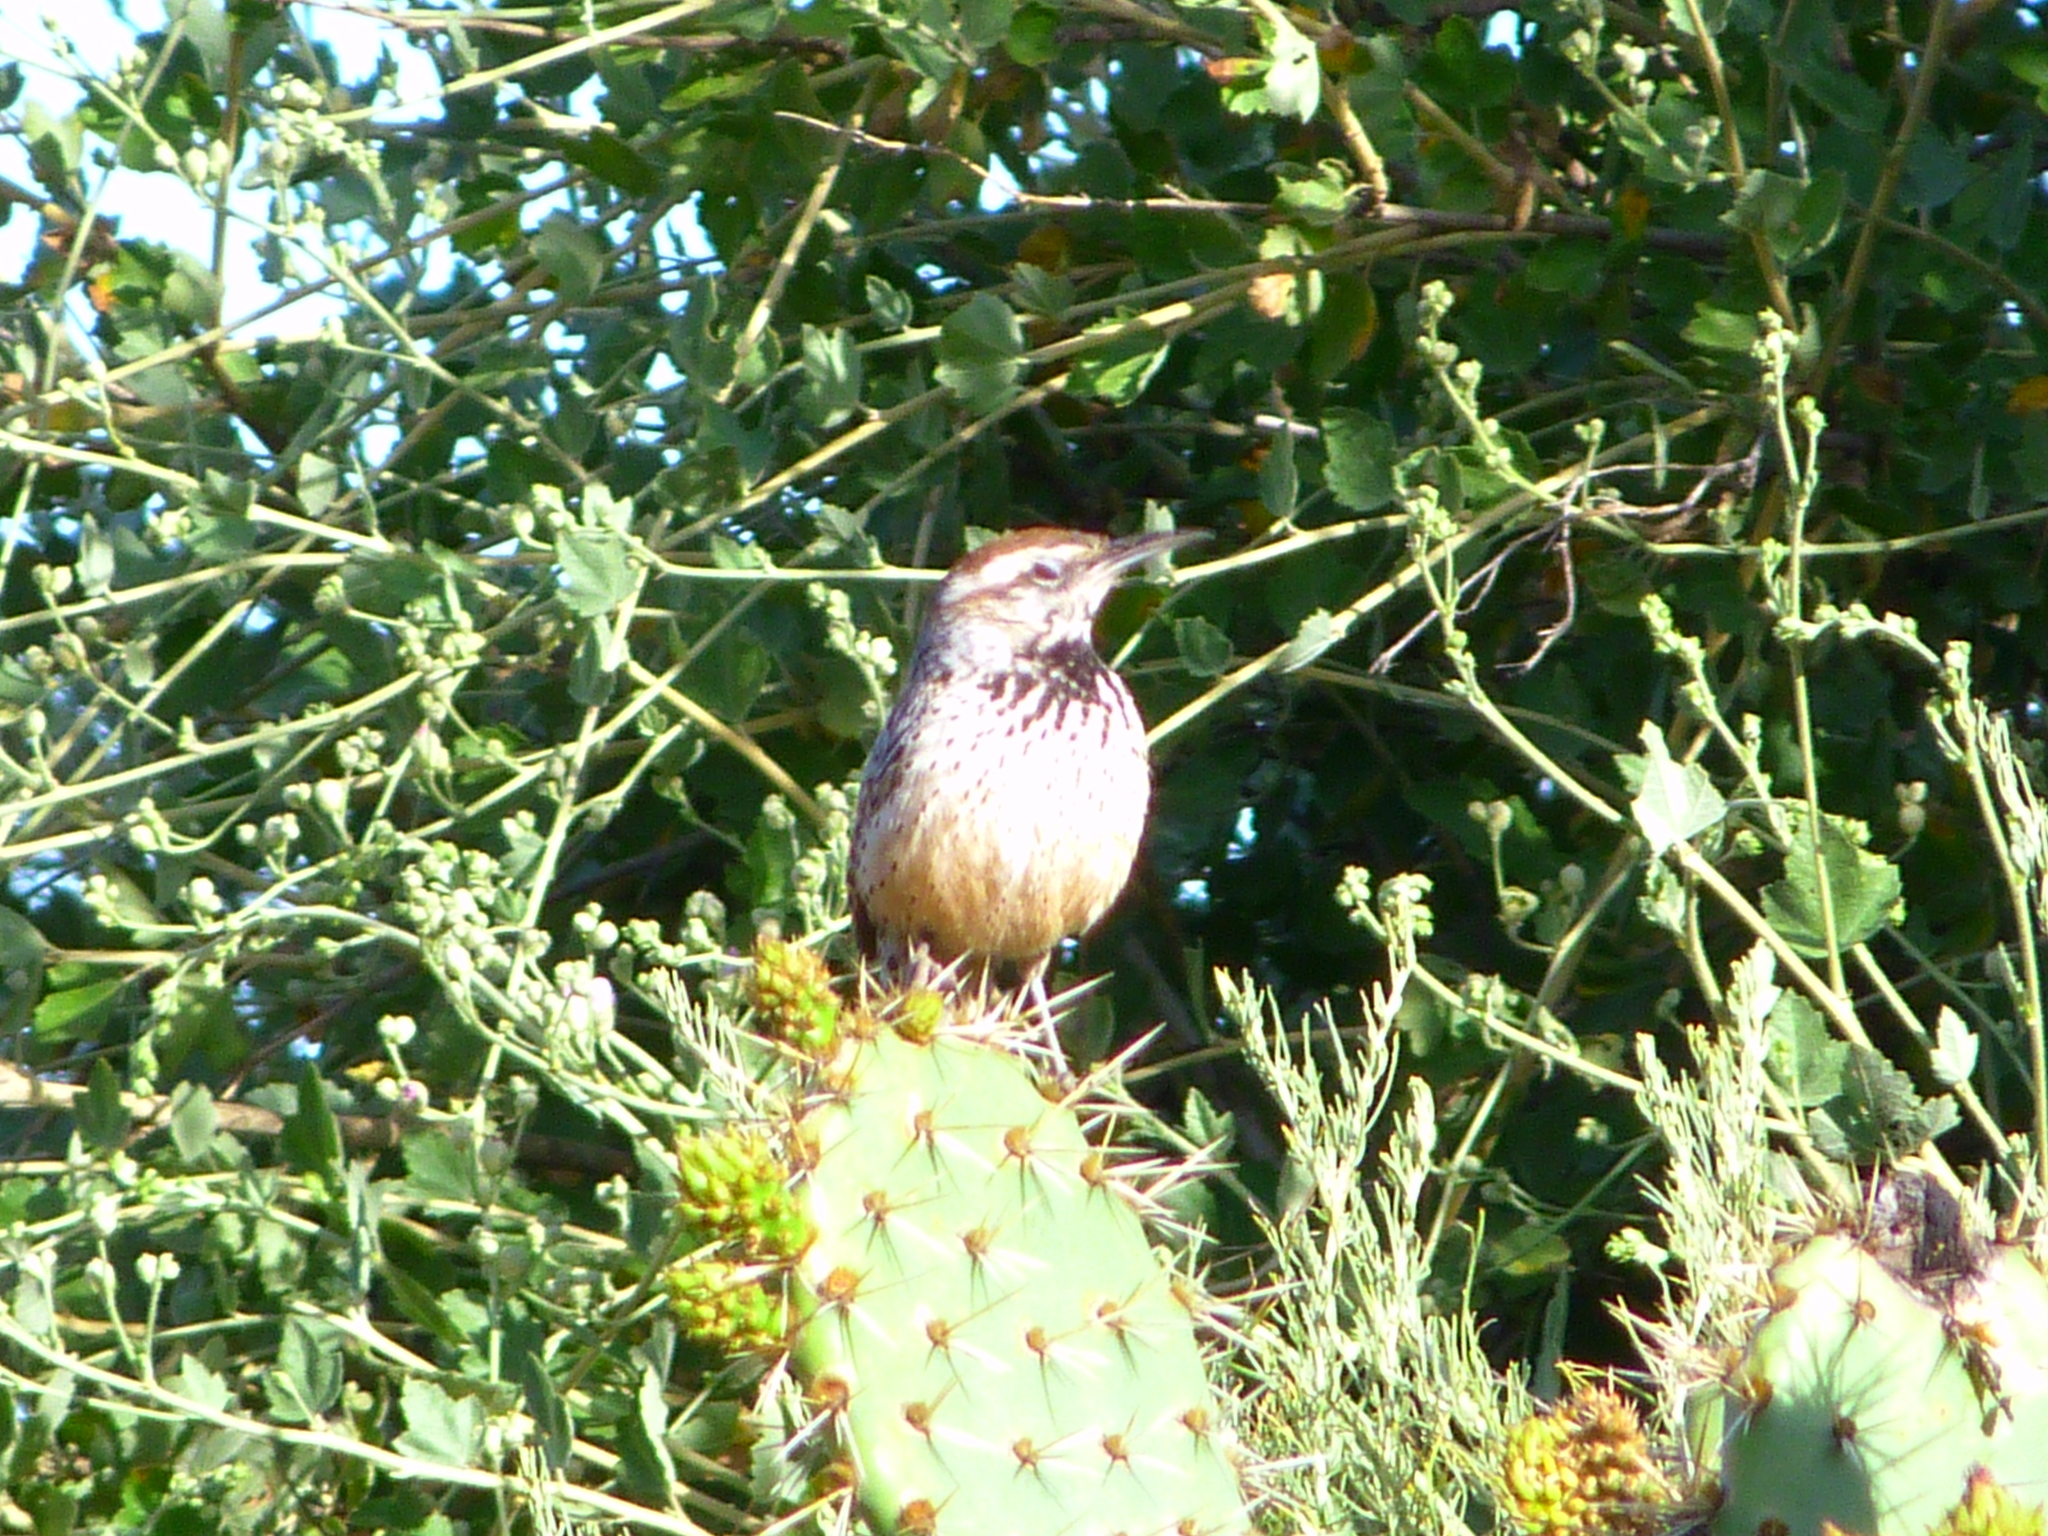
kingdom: Animalia
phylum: Chordata
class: Aves
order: Passeriformes
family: Troglodytidae
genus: Campylorhynchus
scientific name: Campylorhynchus brunneicapillus
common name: Cactus wren
